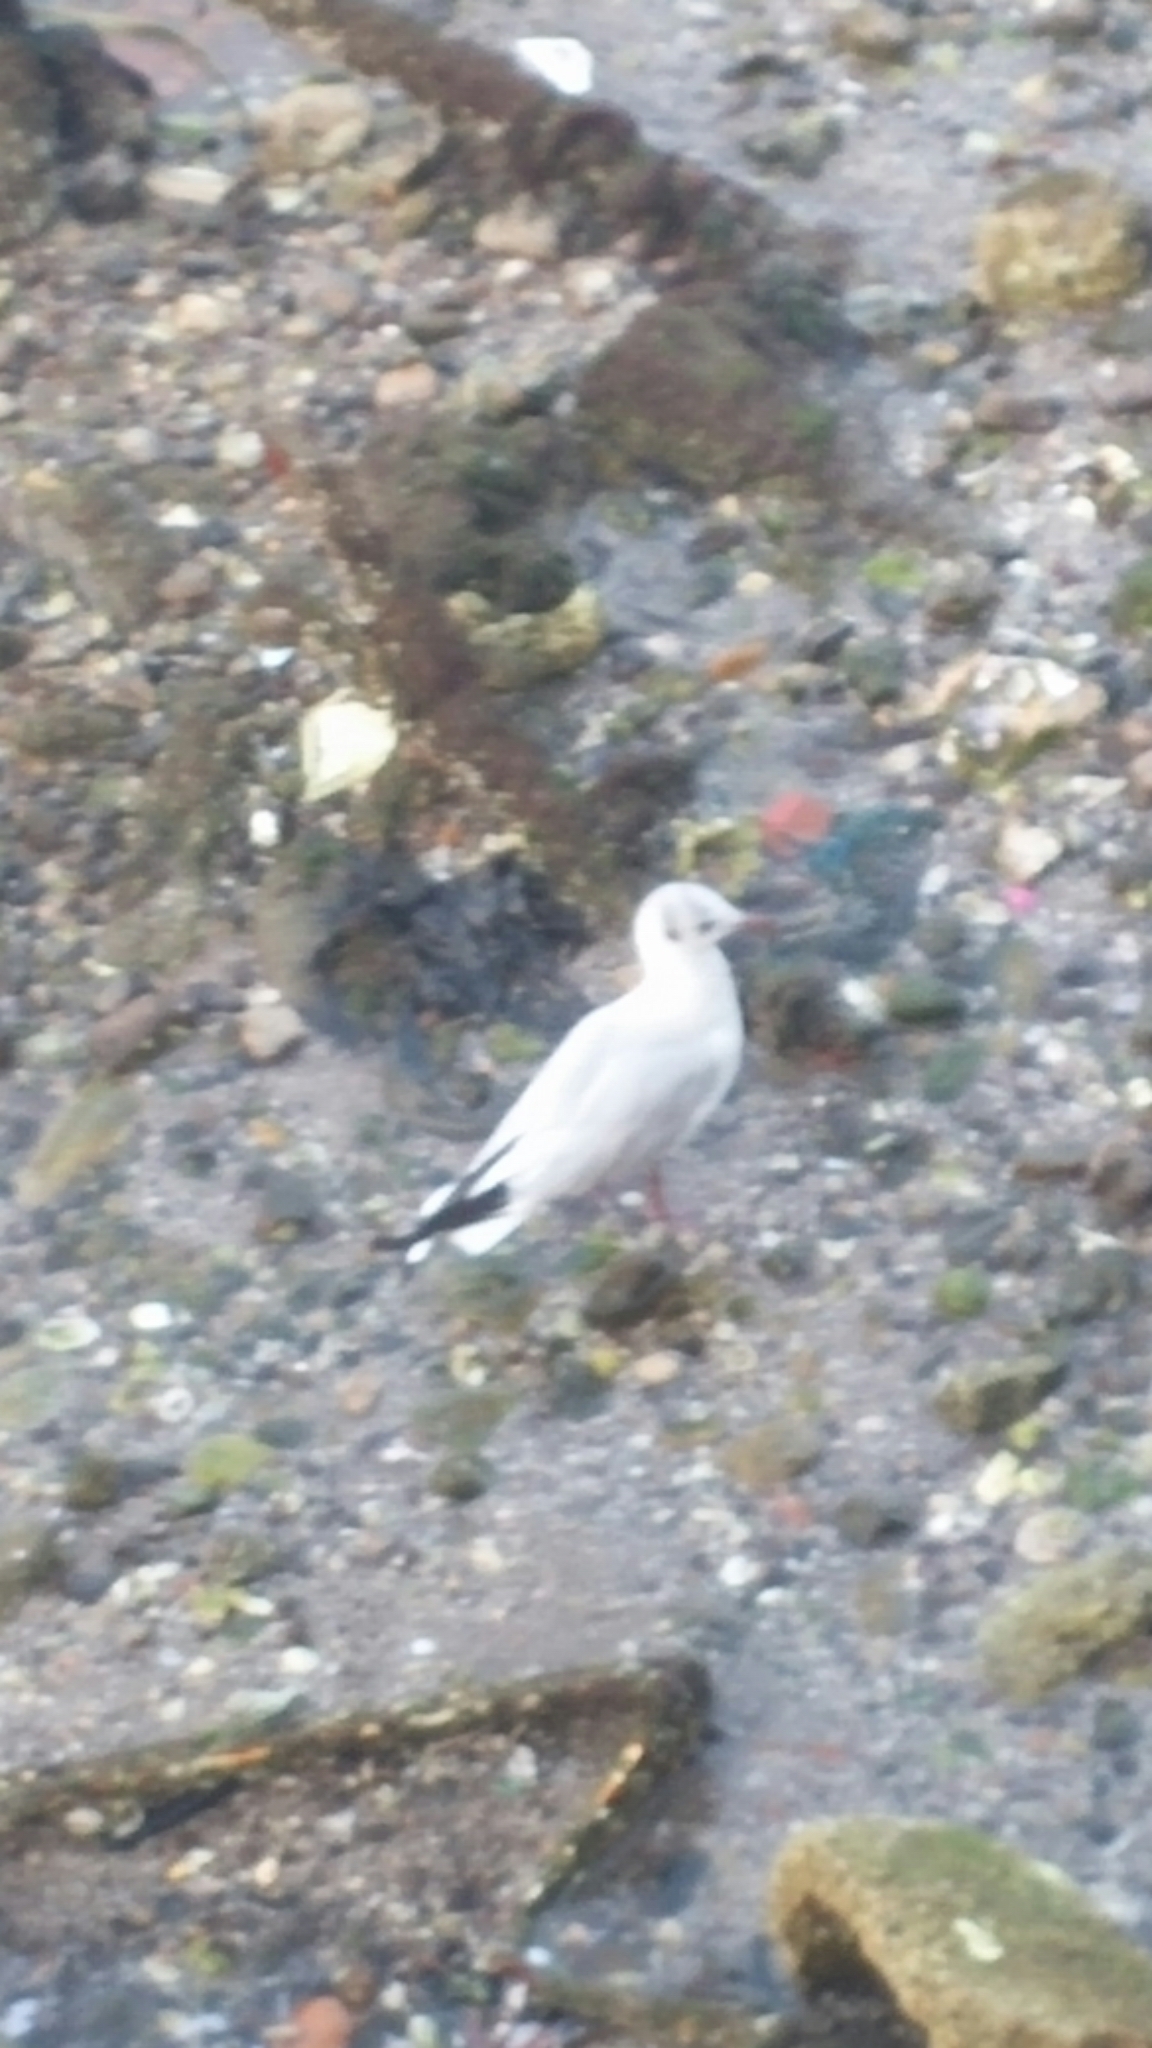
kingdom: Animalia
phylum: Chordata
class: Aves
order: Charadriiformes
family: Laridae
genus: Chroicocephalus
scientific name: Chroicocephalus ridibundus
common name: Black-headed gull
